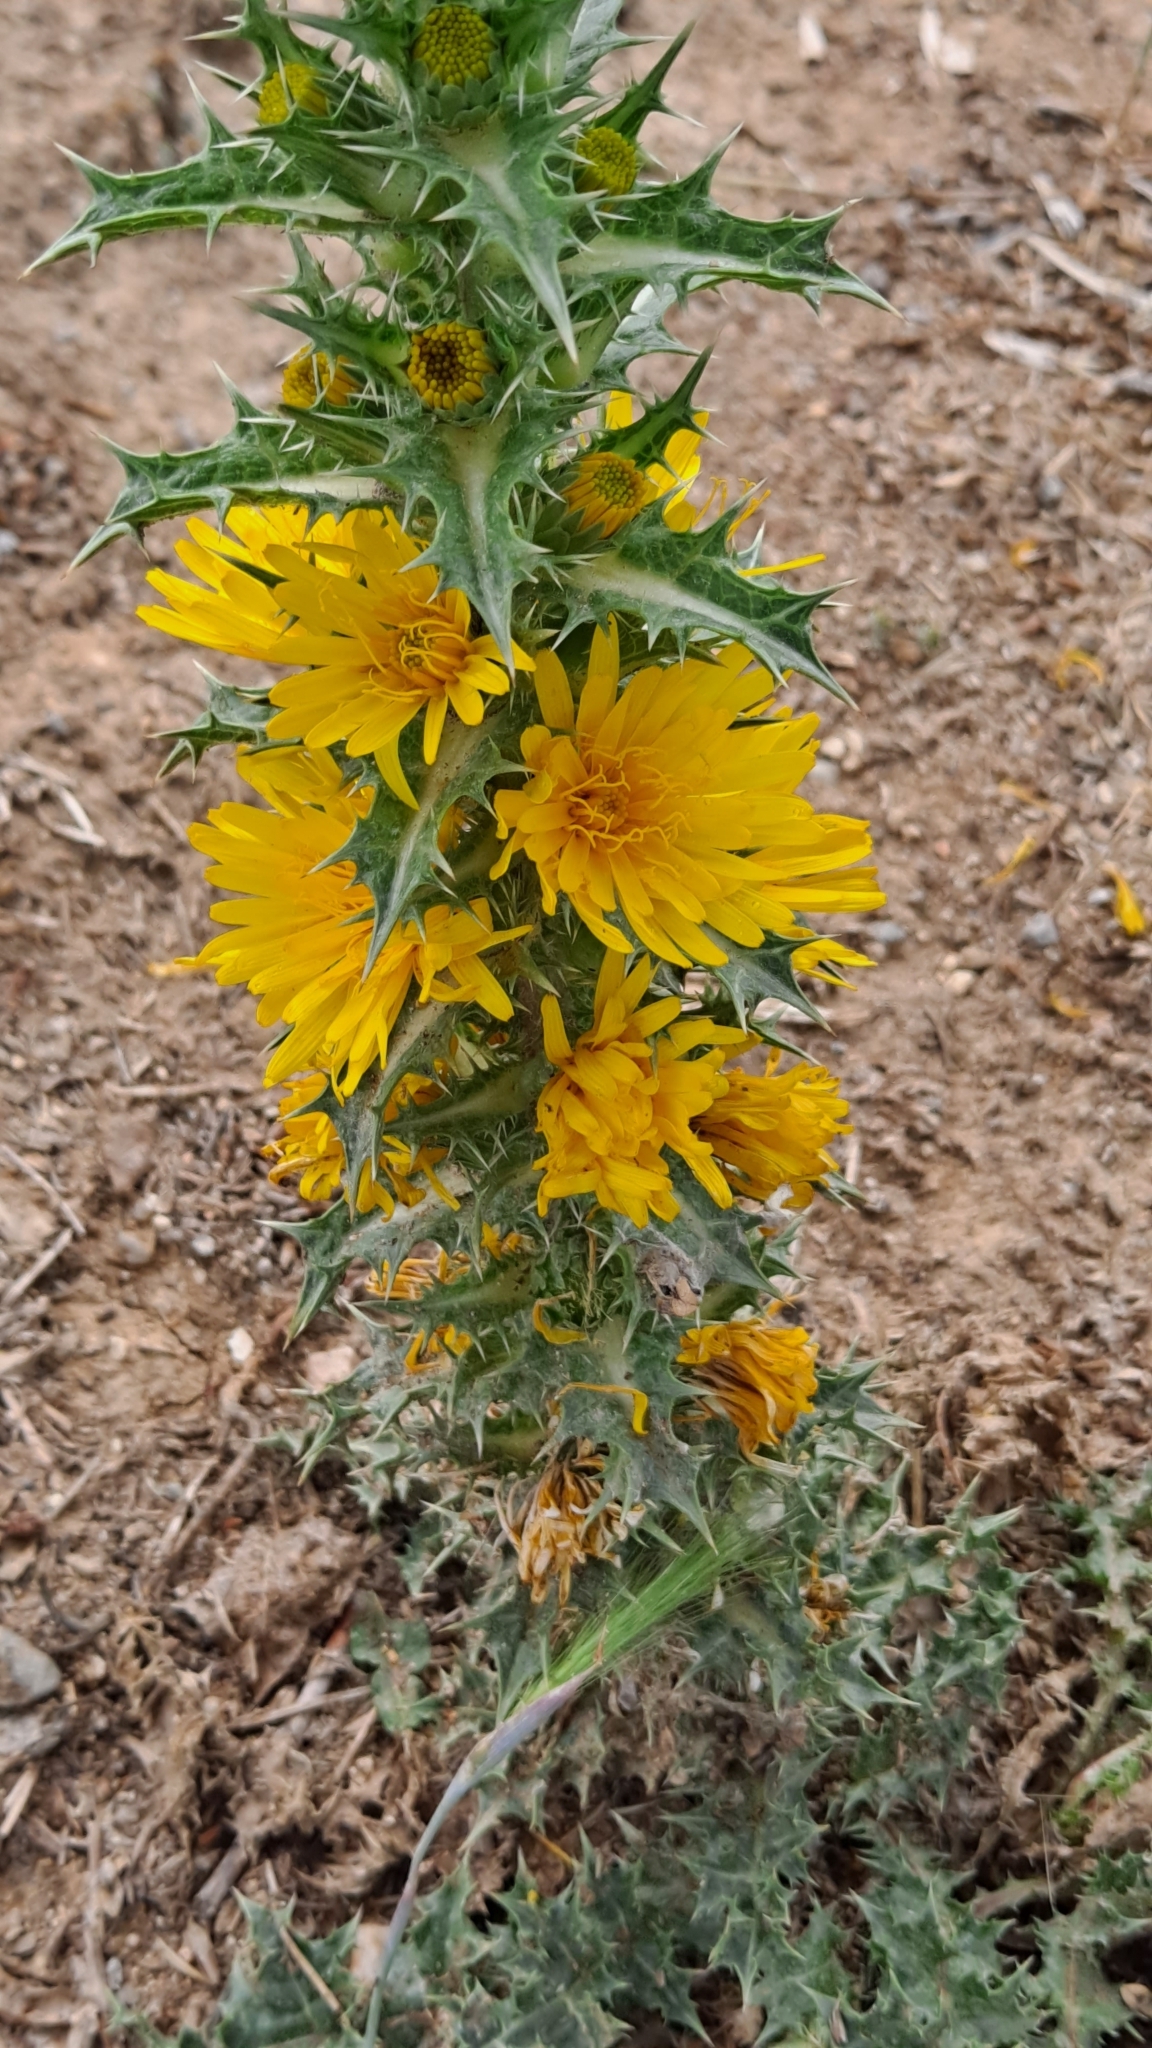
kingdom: Plantae
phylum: Tracheophyta
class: Magnoliopsida
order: Asterales
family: Asteraceae
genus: Scolymus
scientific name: Scolymus hispanicus
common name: Golden thistle
